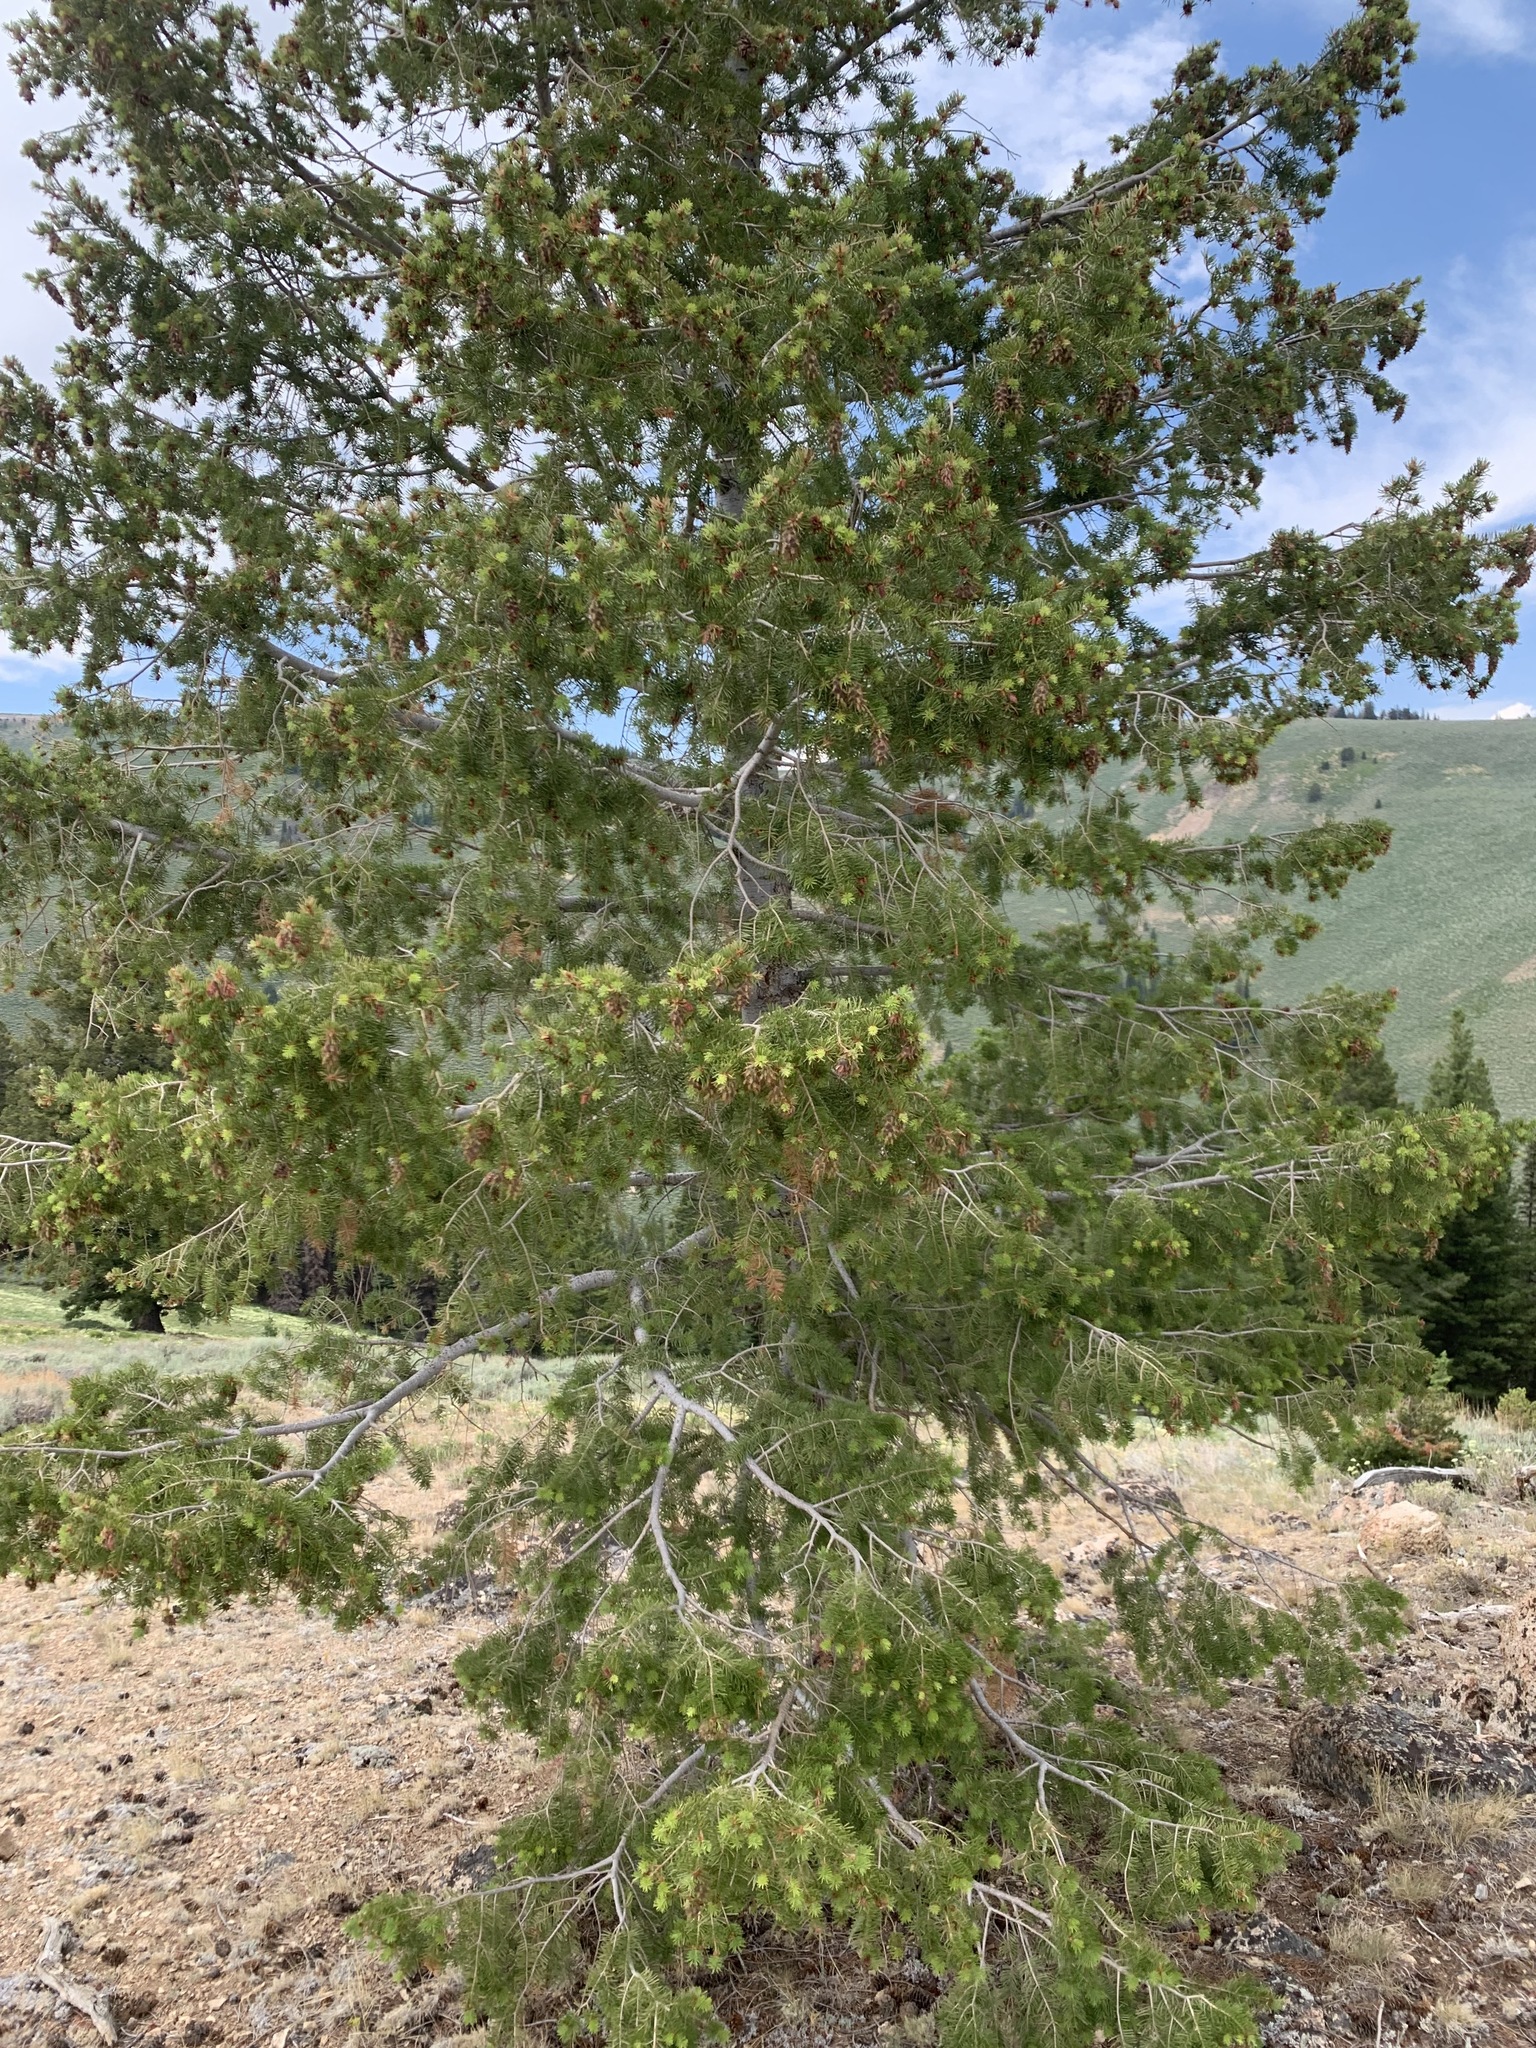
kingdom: Plantae
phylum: Tracheophyta
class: Pinopsida
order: Pinales
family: Pinaceae
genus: Pseudotsuga
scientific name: Pseudotsuga menziesii
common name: Douglas fir
